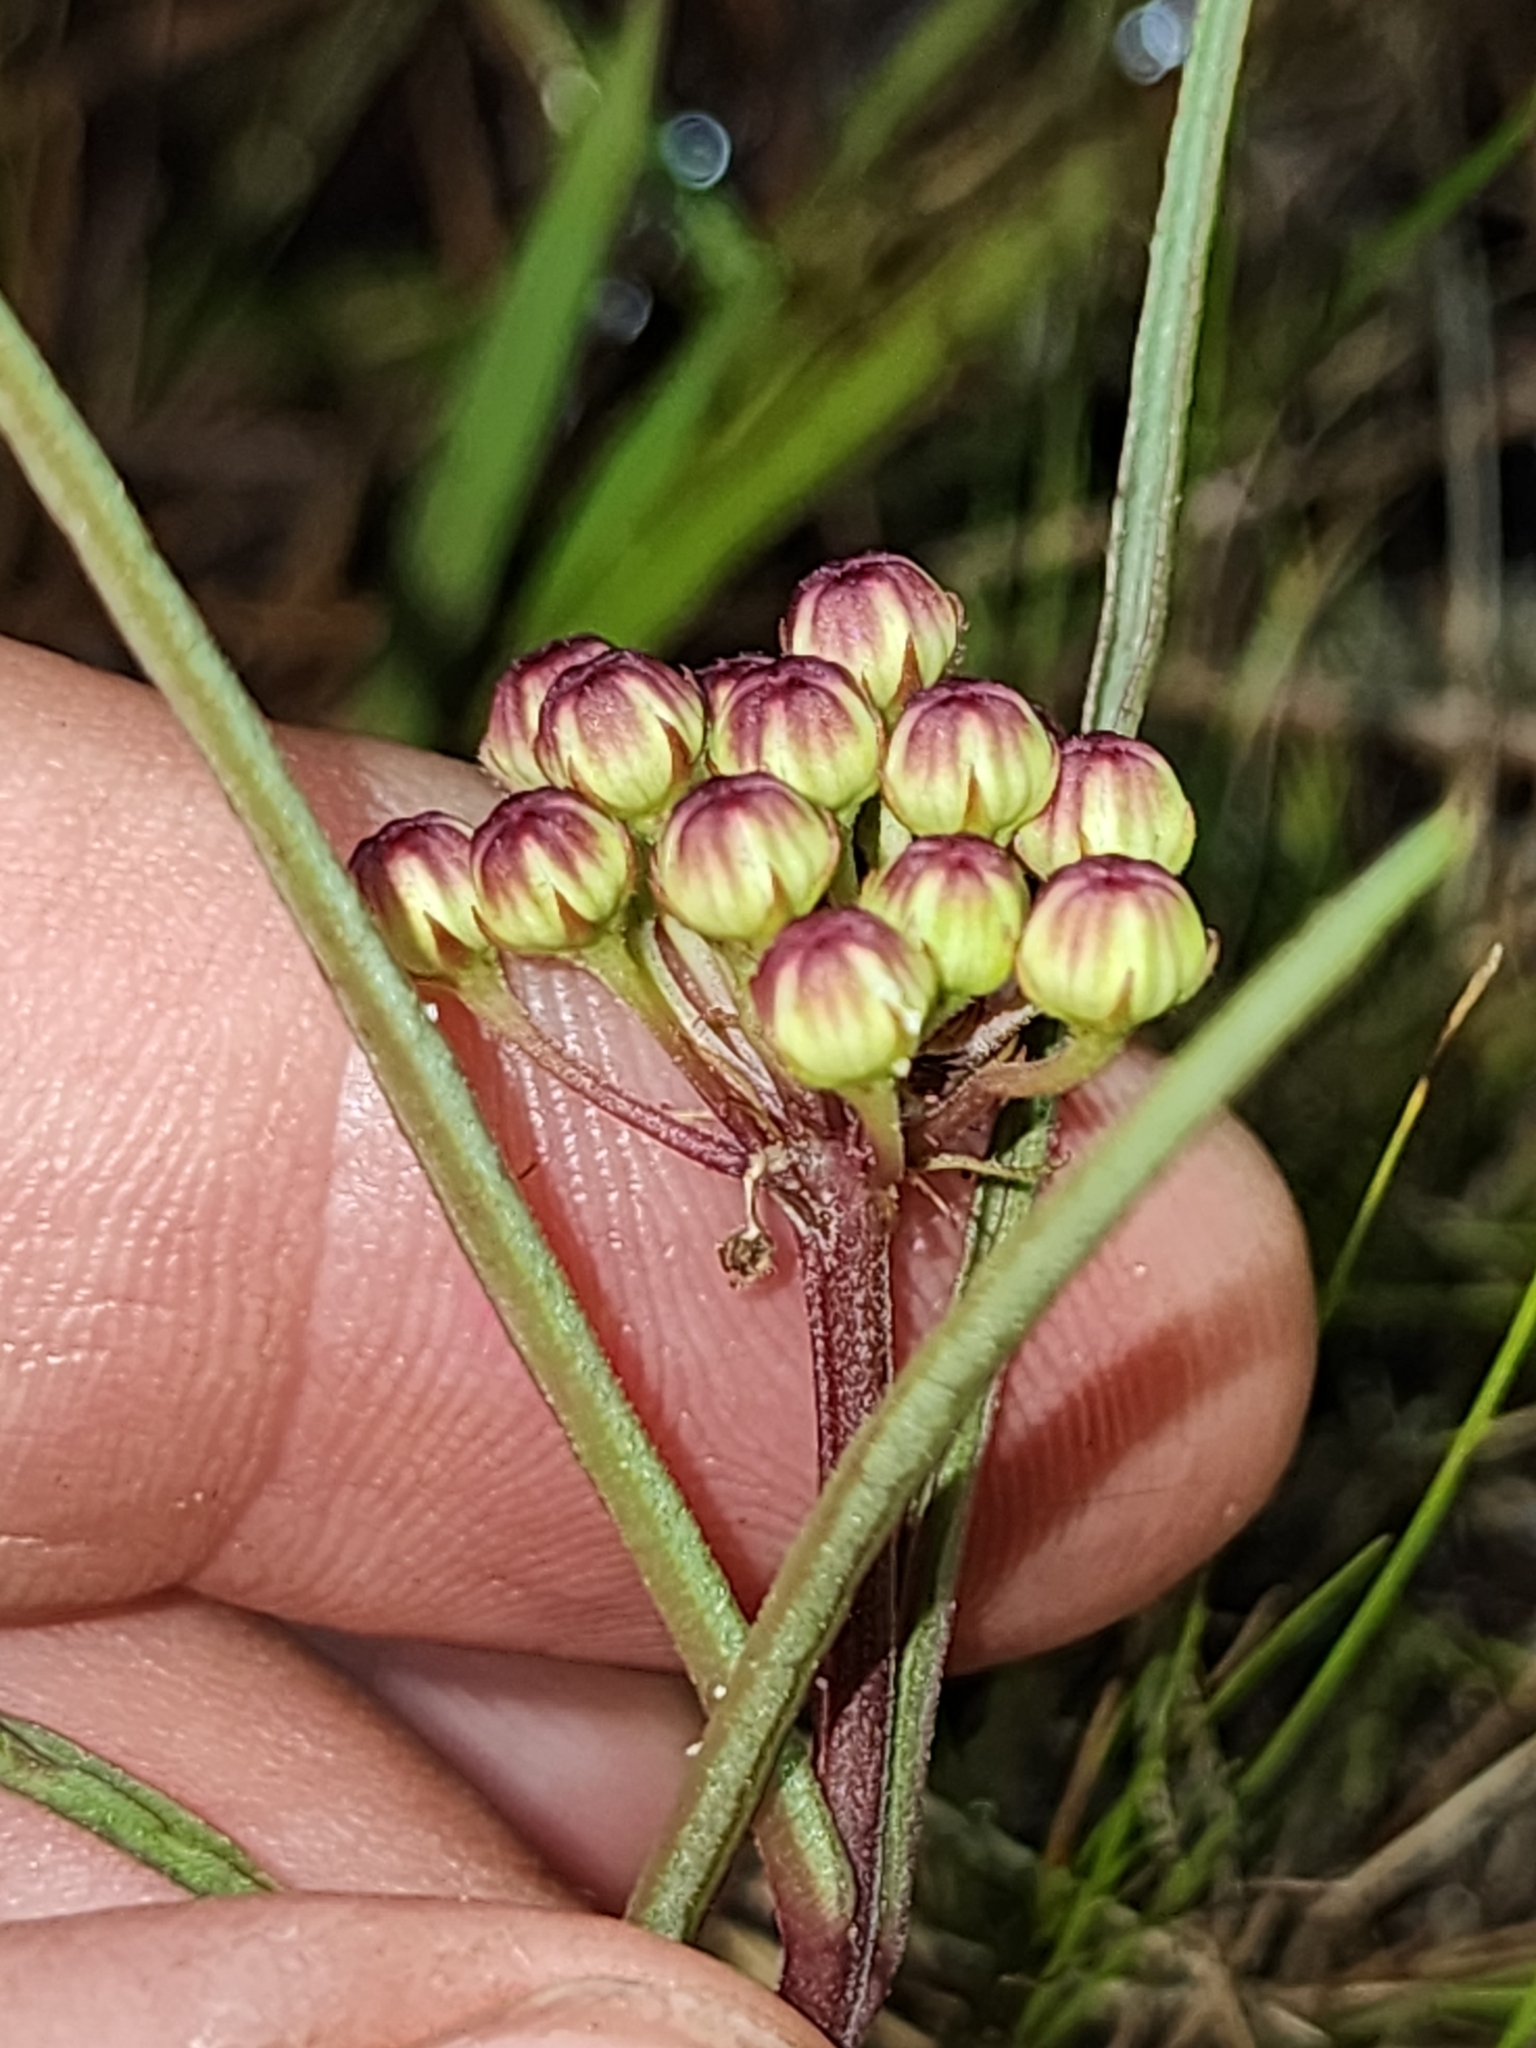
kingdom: Plantae
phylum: Tracheophyta
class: Magnoliopsida
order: Gentianales
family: Apocynaceae
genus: Asclepias
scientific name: Asclepias michauxii
